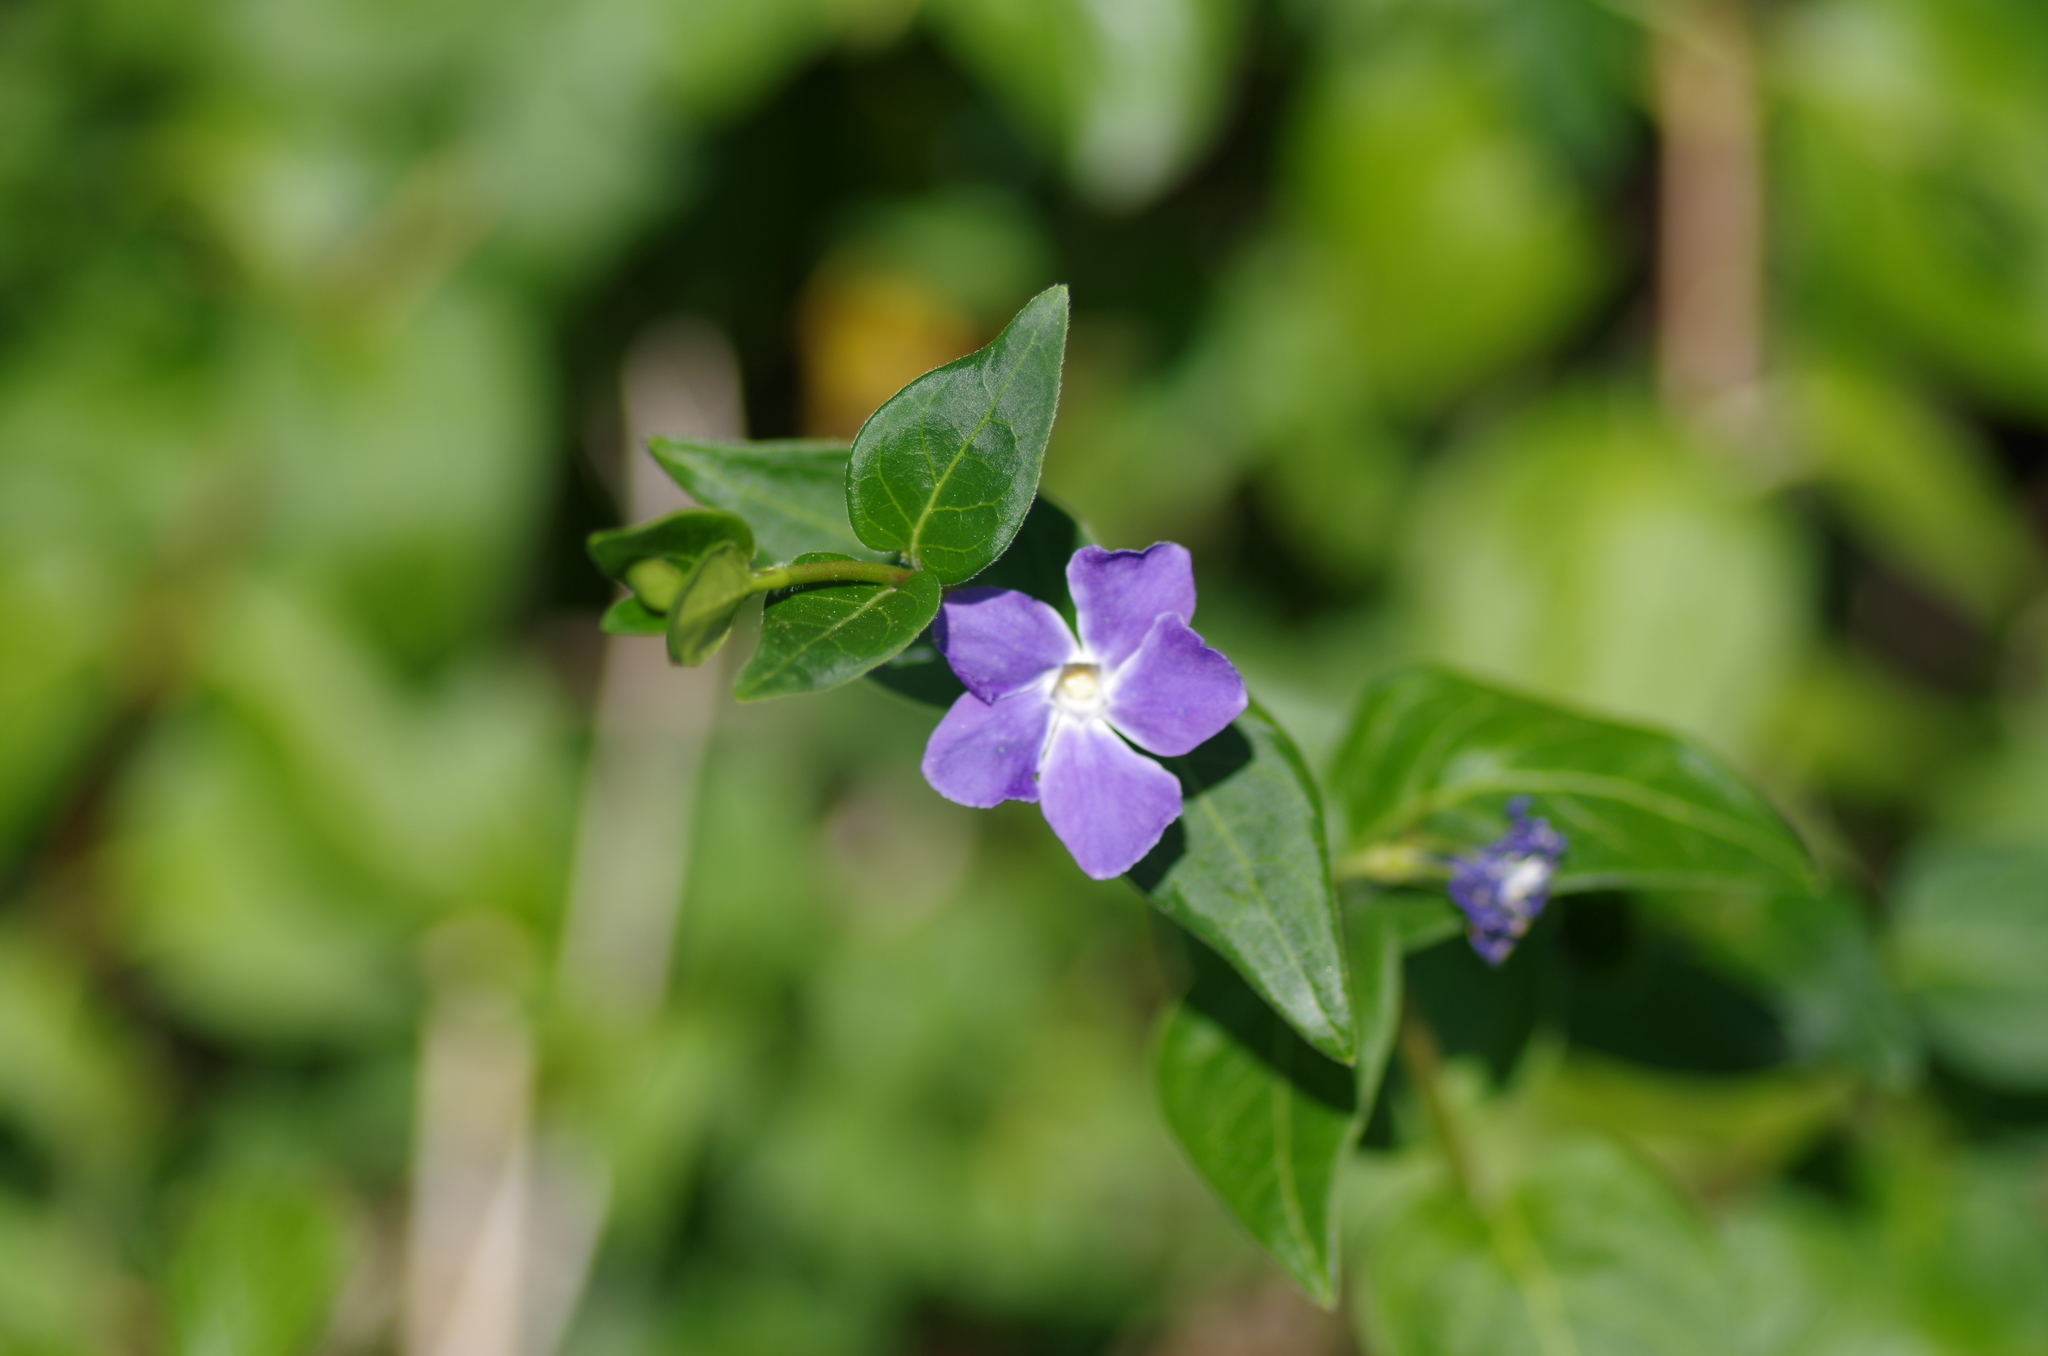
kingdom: Plantae
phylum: Tracheophyta
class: Magnoliopsida
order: Gentianales
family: Apocynaceae
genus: Vinca
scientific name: Vinca major
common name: Greater periwinkle
